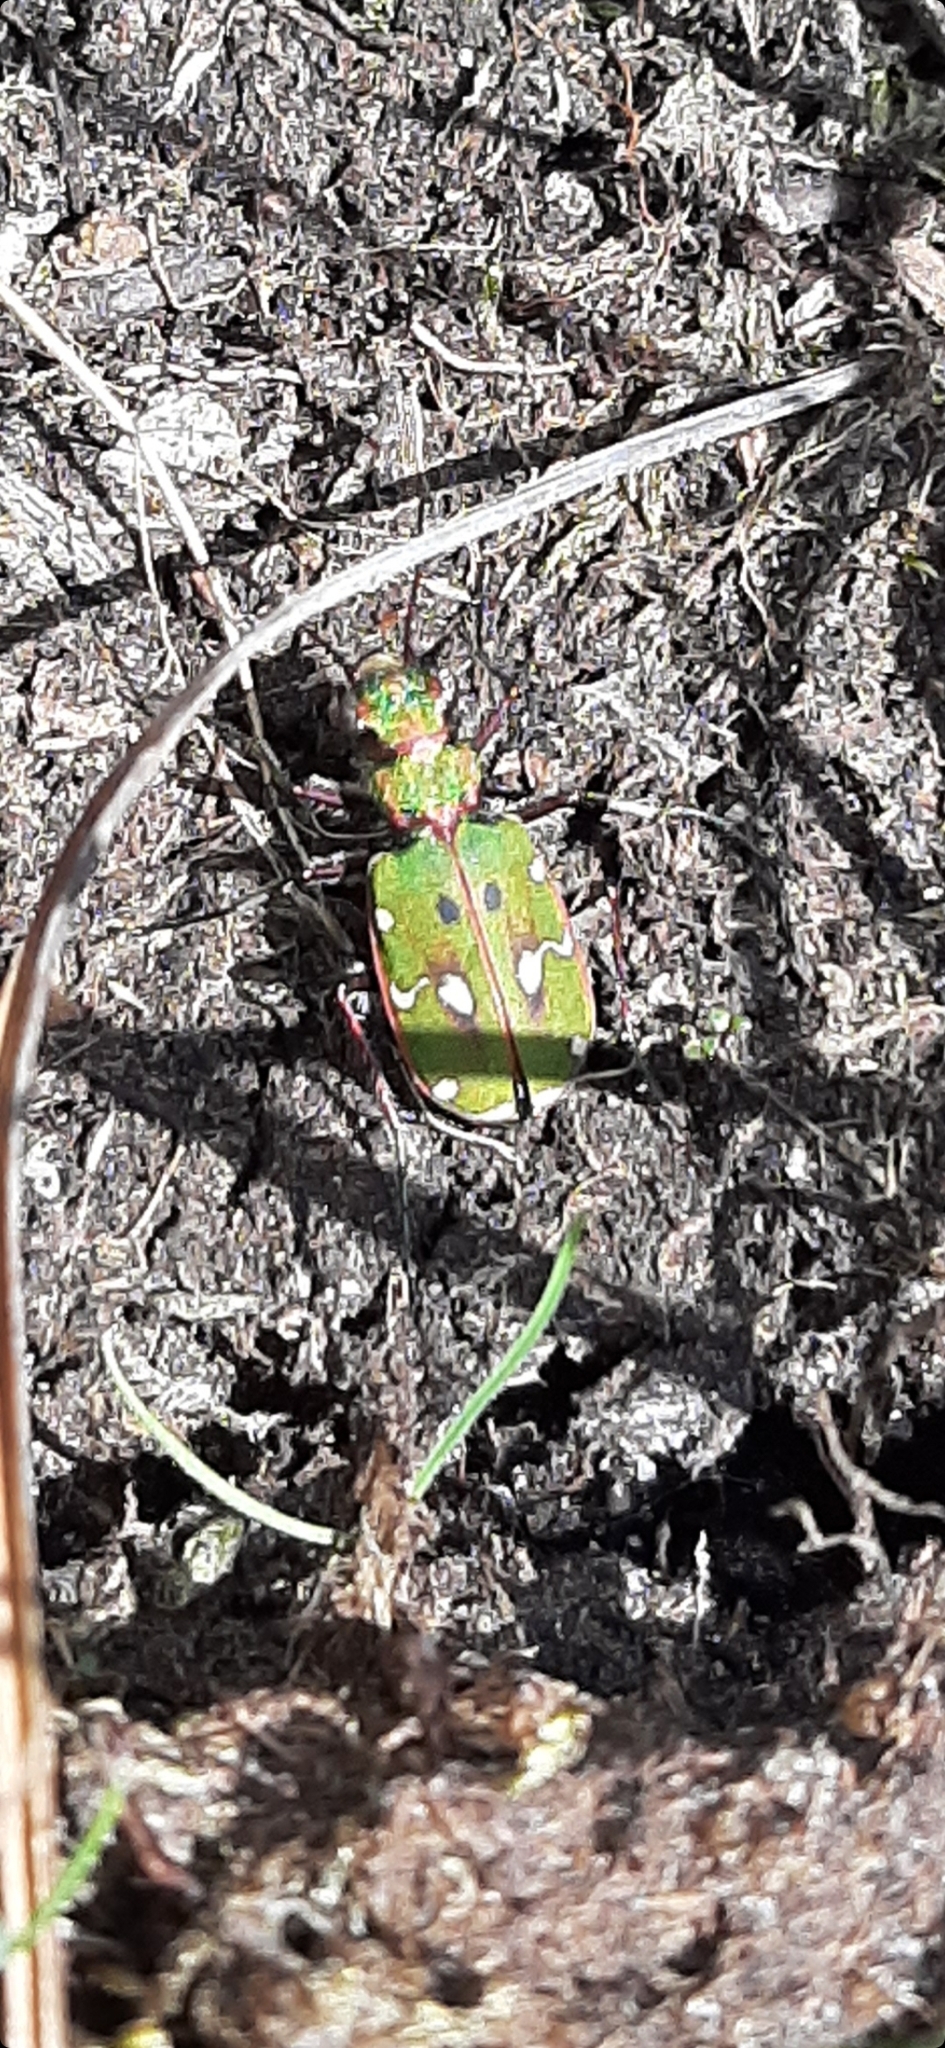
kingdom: Animalia
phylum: Arthropoda
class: Insecta
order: Coleoptera
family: Carabidae
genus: Cicindela
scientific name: Cicindela campestris
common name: Common tiger beetle
